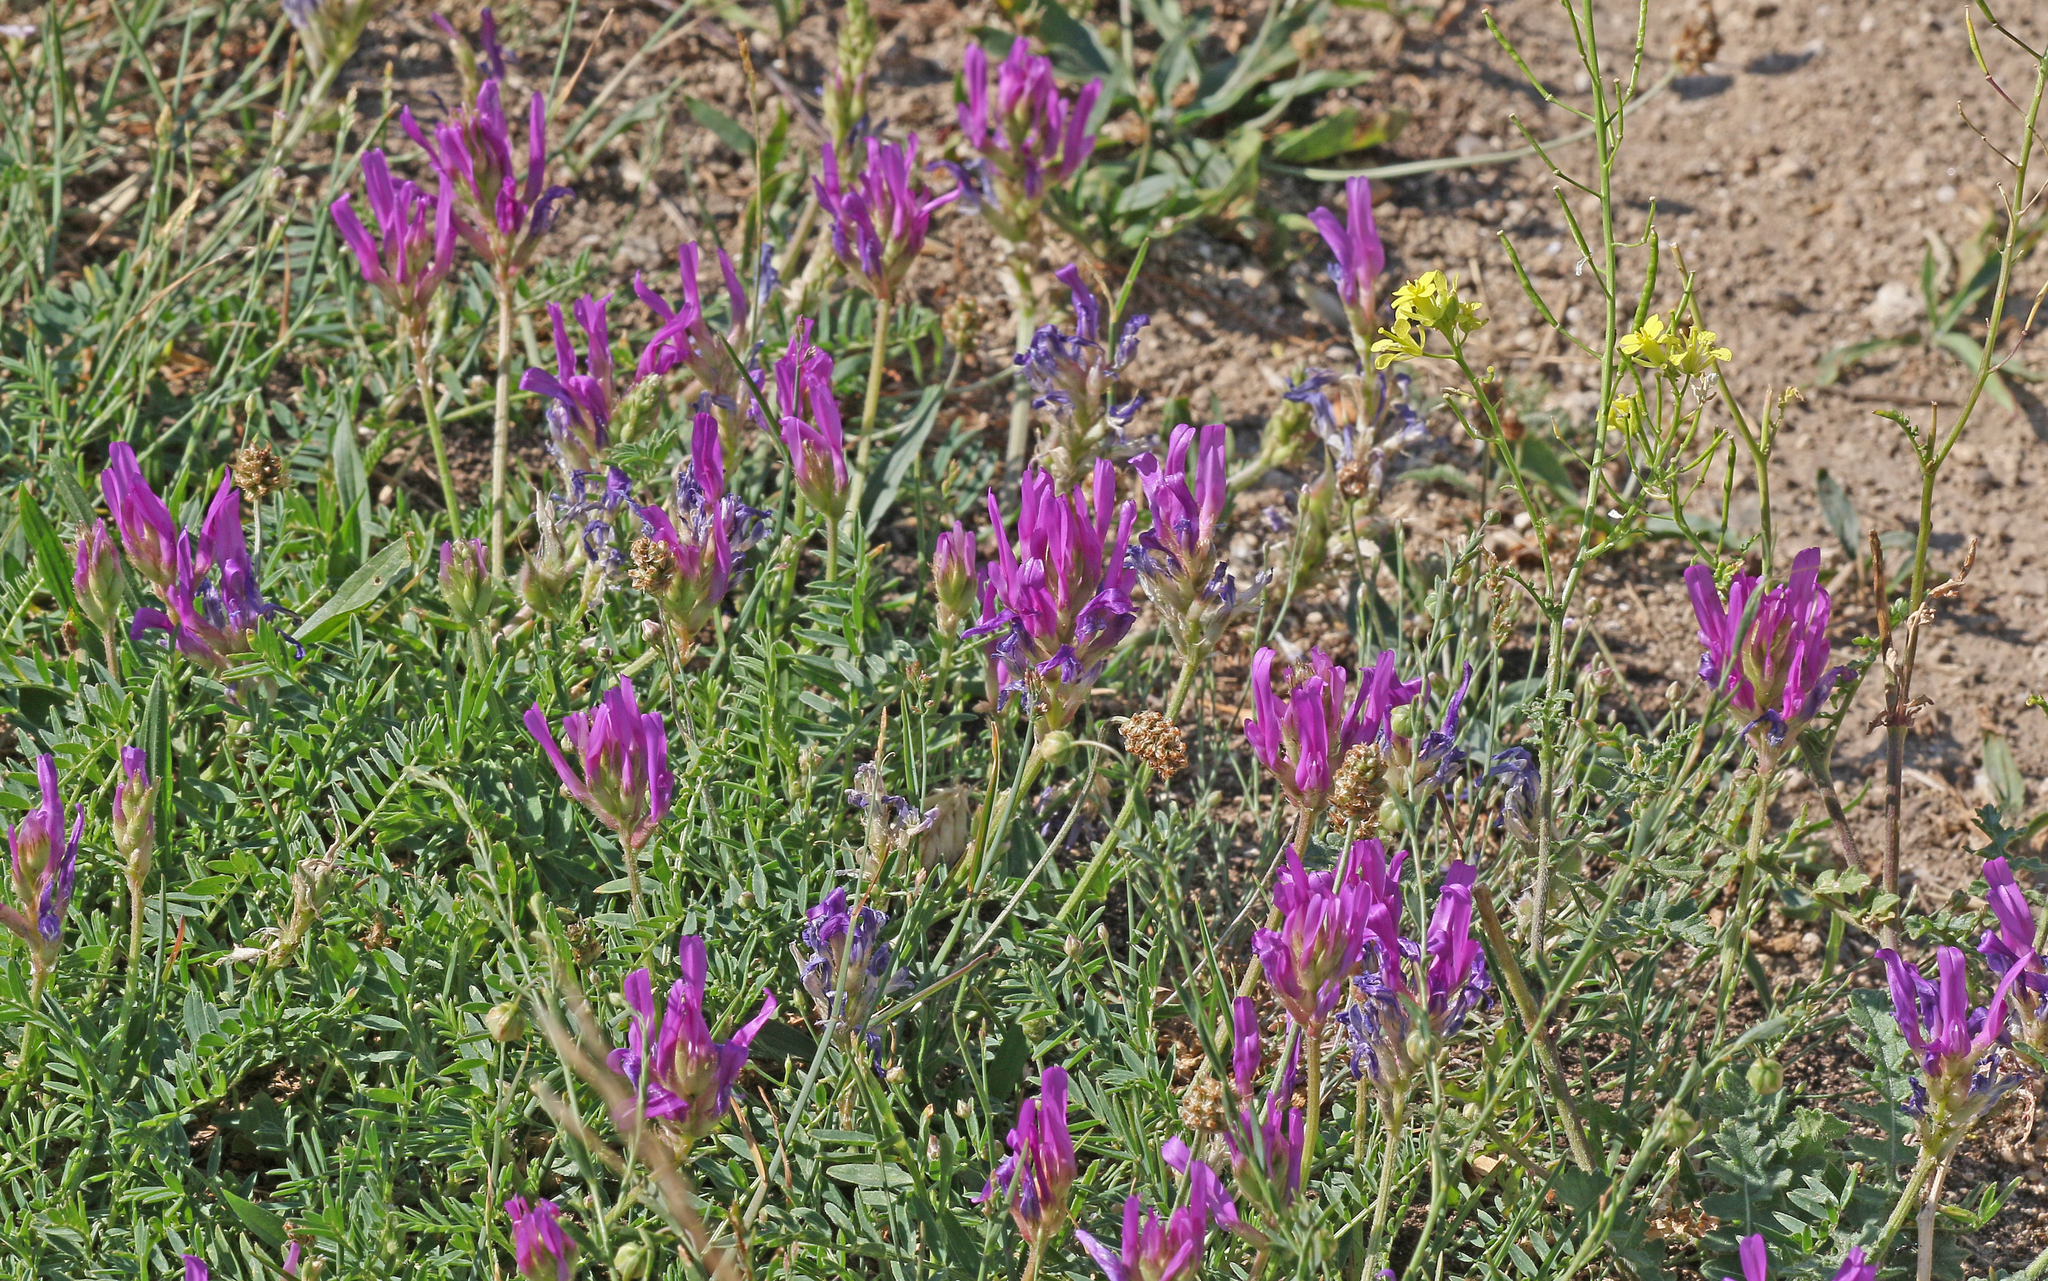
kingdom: Plantae
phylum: Tracheophyta
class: Magnoliopsida
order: Fabales
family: Fabaceae
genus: Astragalus
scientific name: Astragalus onobrychis
